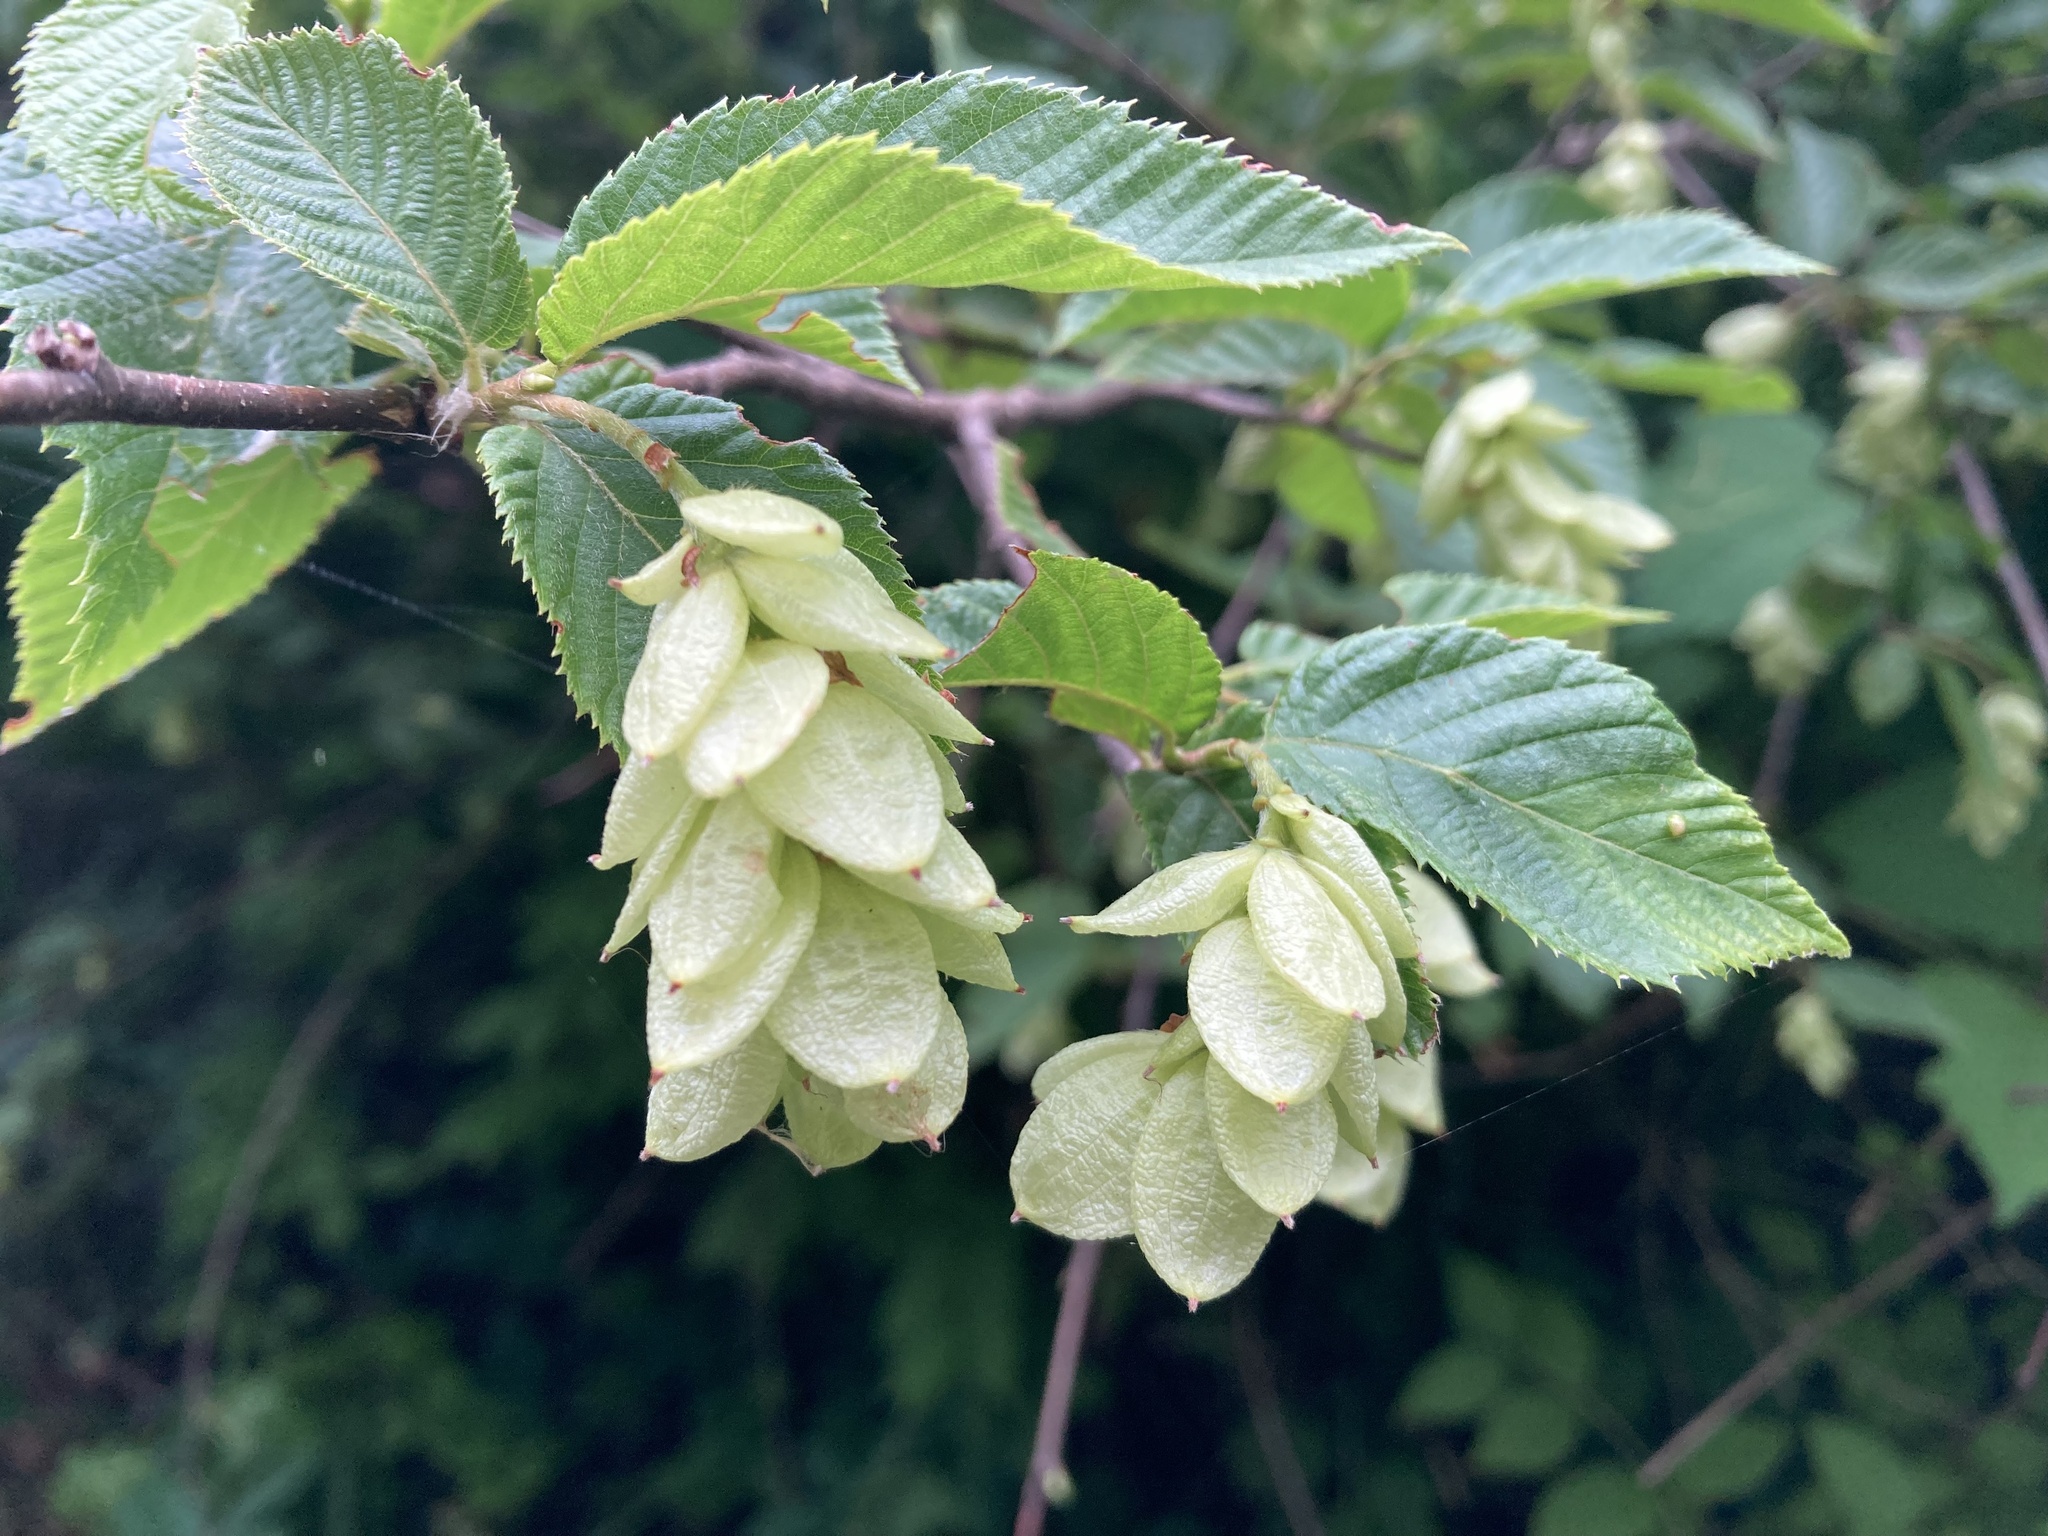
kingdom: Plantae
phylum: Tracheophyta
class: Magnoliopsida
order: Fagales
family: Betulaceae
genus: Ostrya
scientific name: Ostrya virginiana
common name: Ironwood
